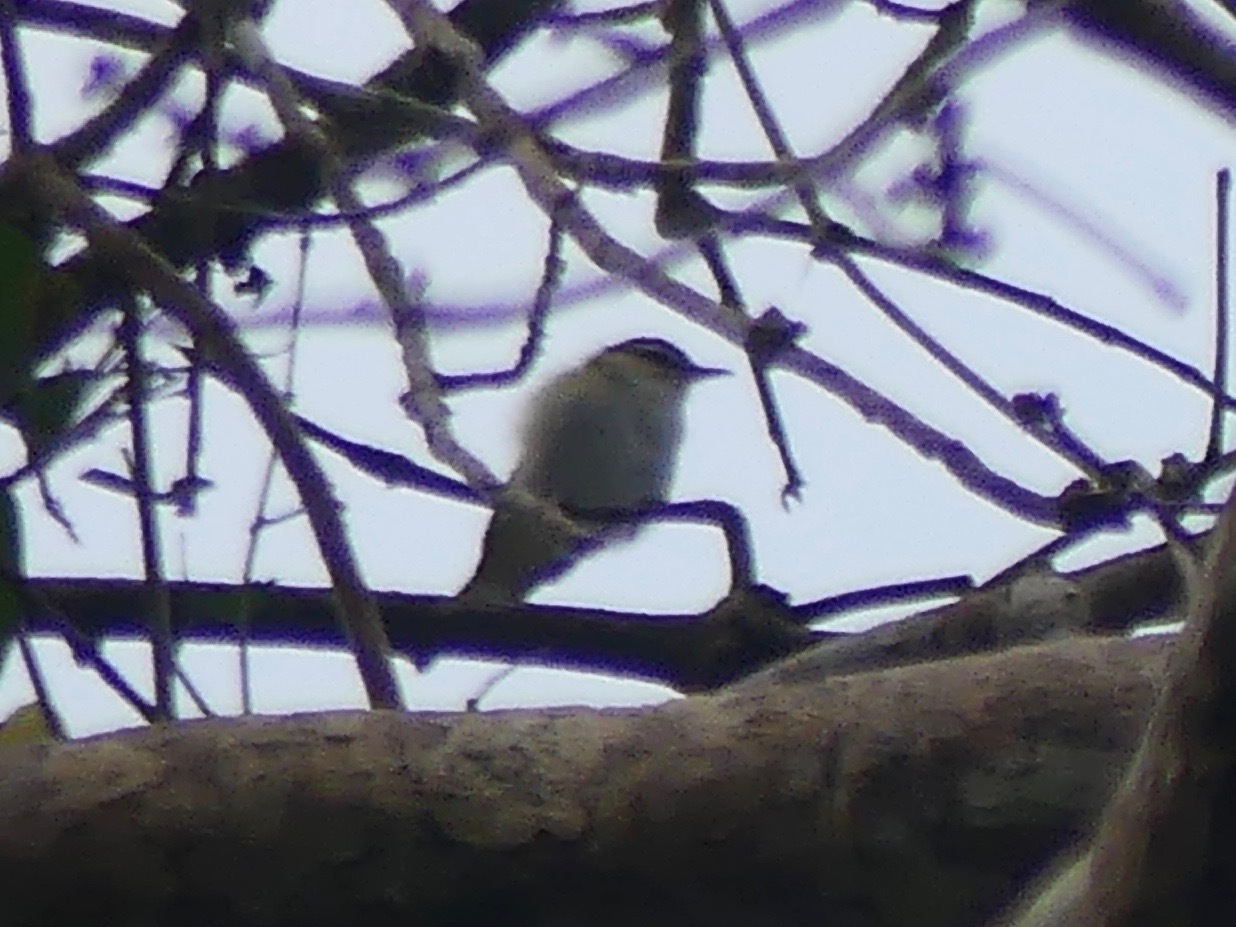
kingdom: Animalia
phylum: Chordata
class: Aves
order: Passeriformes
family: Vireonidae
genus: Vireo
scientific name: Vireo olivaceus
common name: Red-eyed vireo
